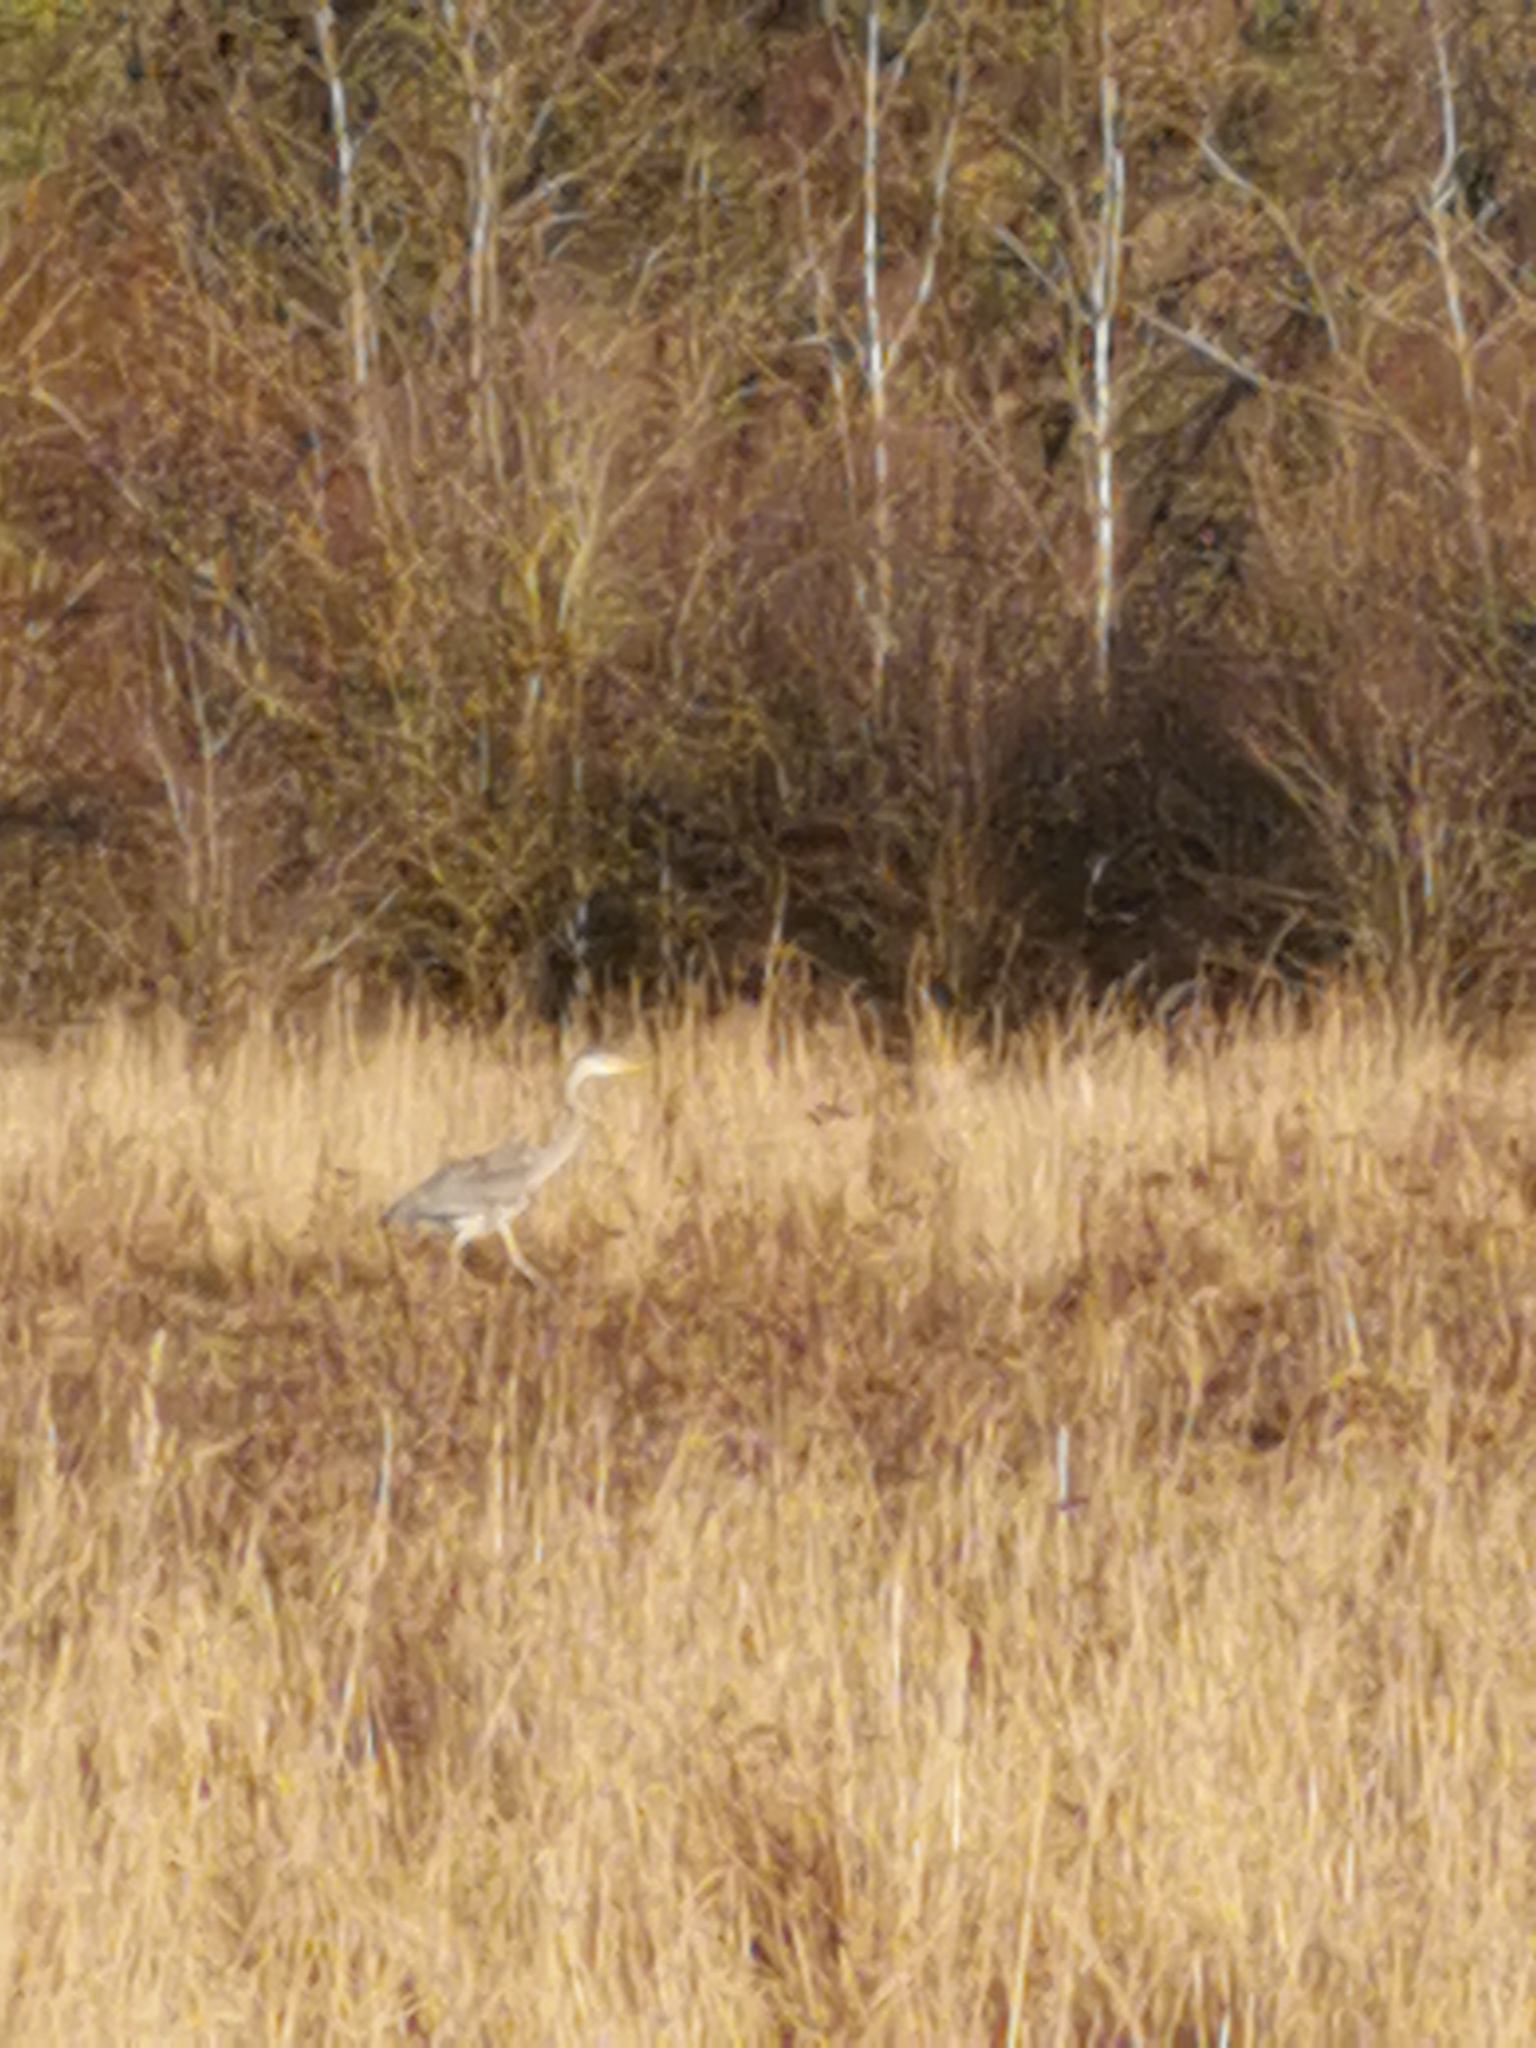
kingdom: Animalia
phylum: Chordata
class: Aves
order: Pelecaniformes
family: Ardeidae
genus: Ardea
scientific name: Ardea cinerea
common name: Grey heron
